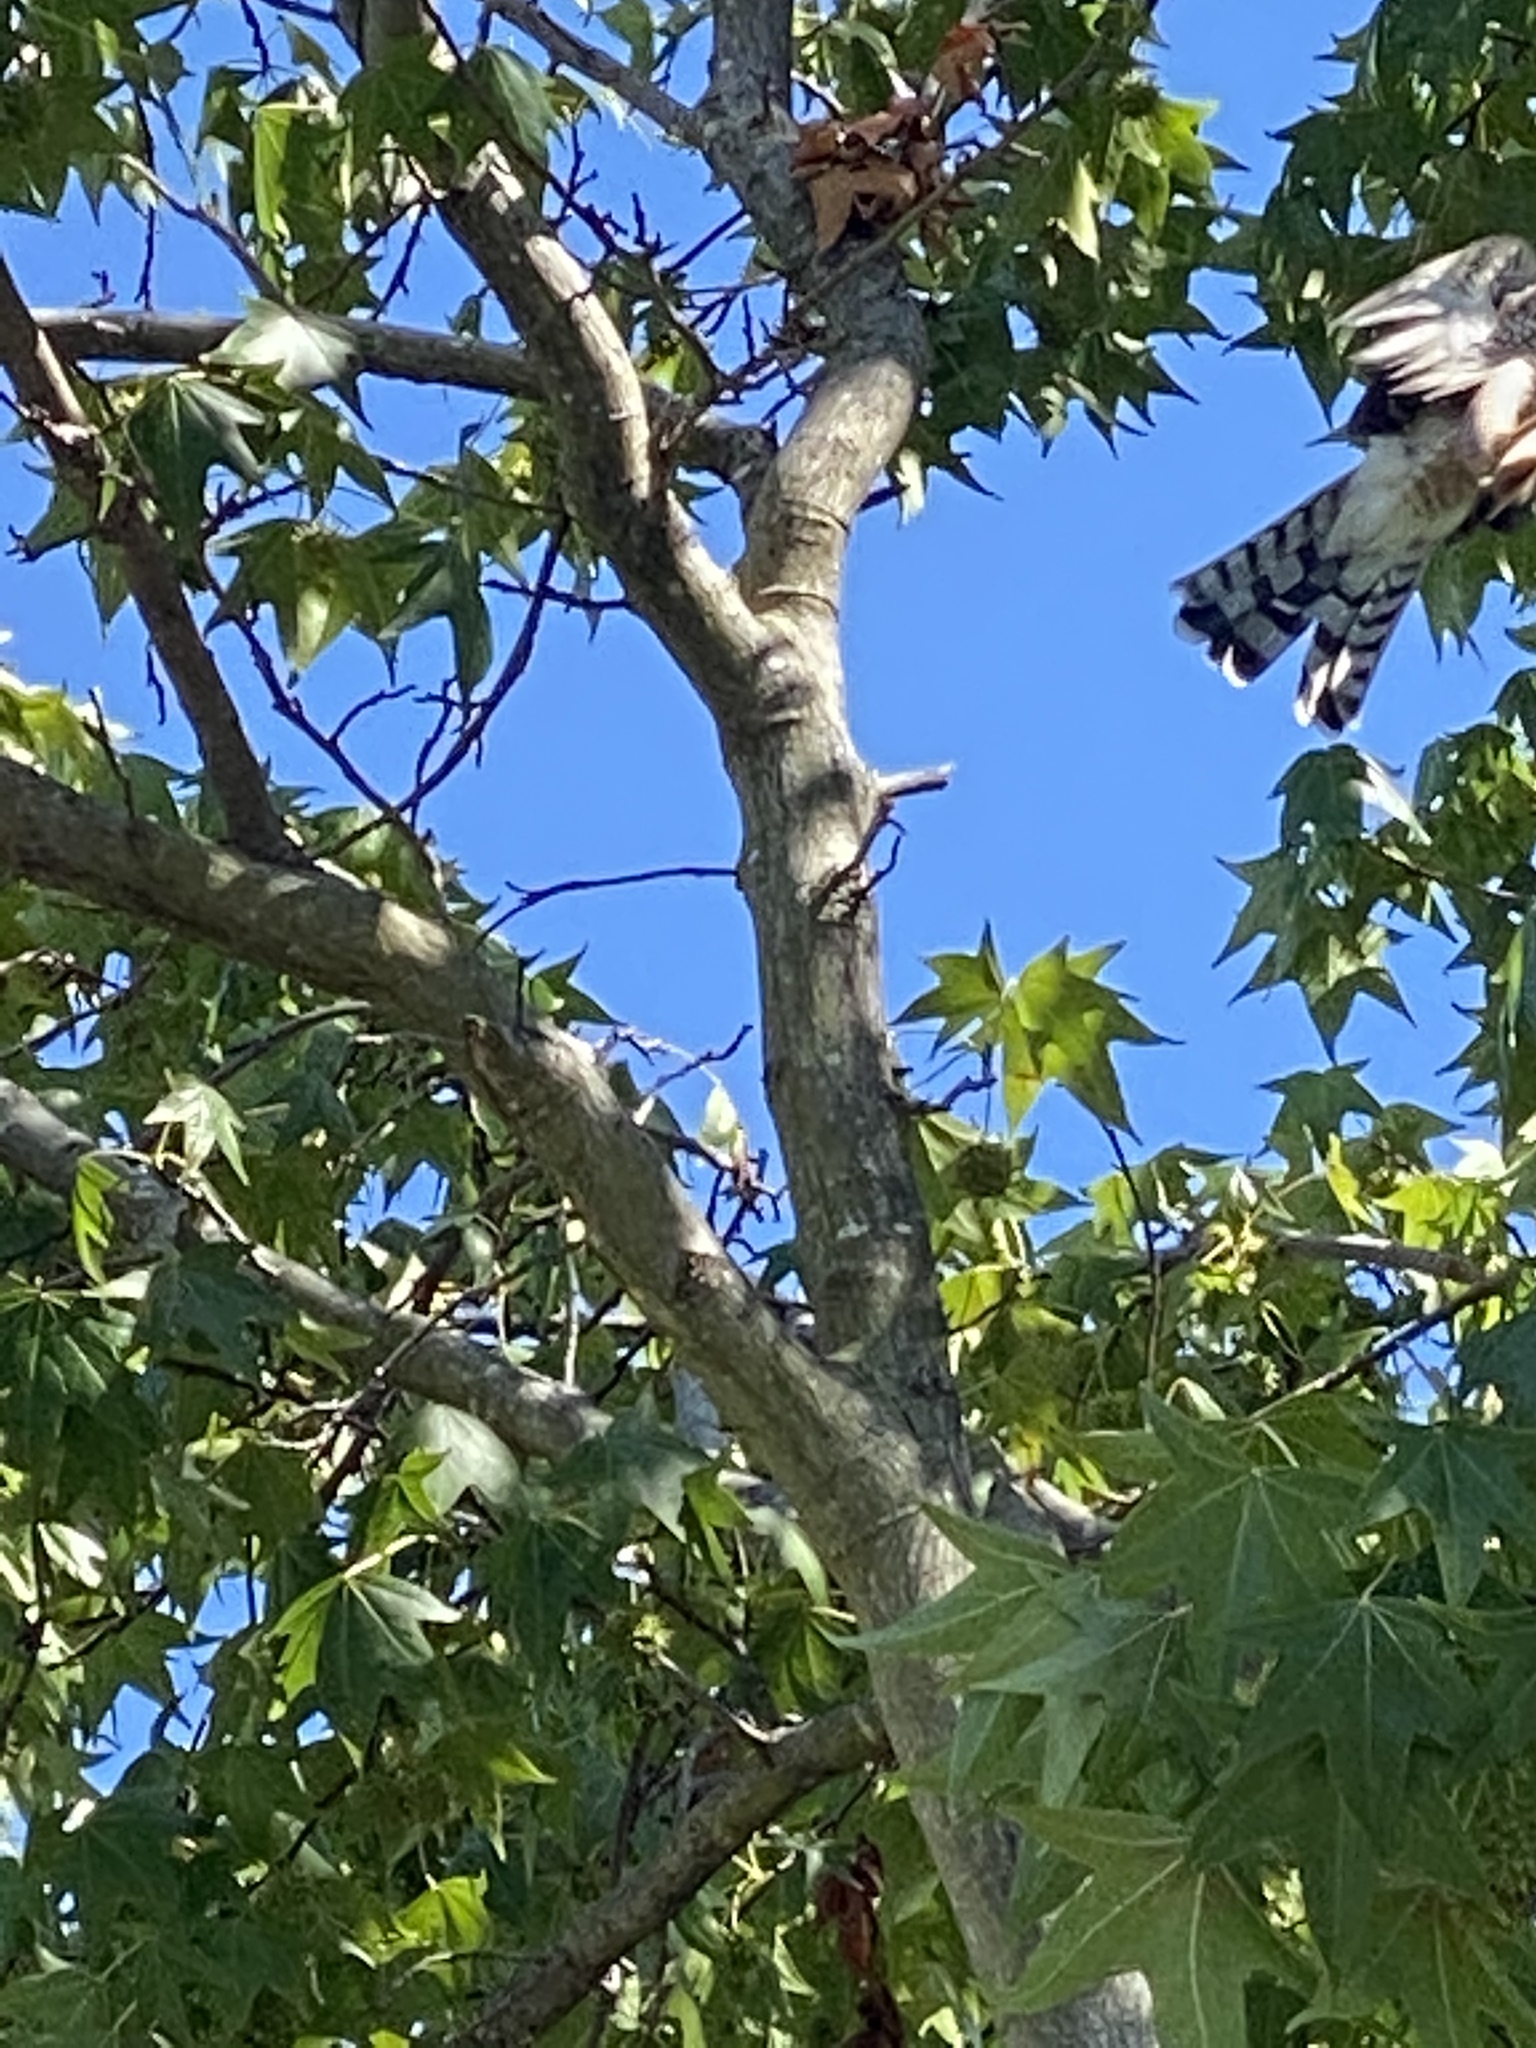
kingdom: Animalia
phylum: Chordata
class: Aves
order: Accipitriformes
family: Accipitridae
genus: Accipiter
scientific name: Accipiter cooperii
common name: Cooper's hawk
